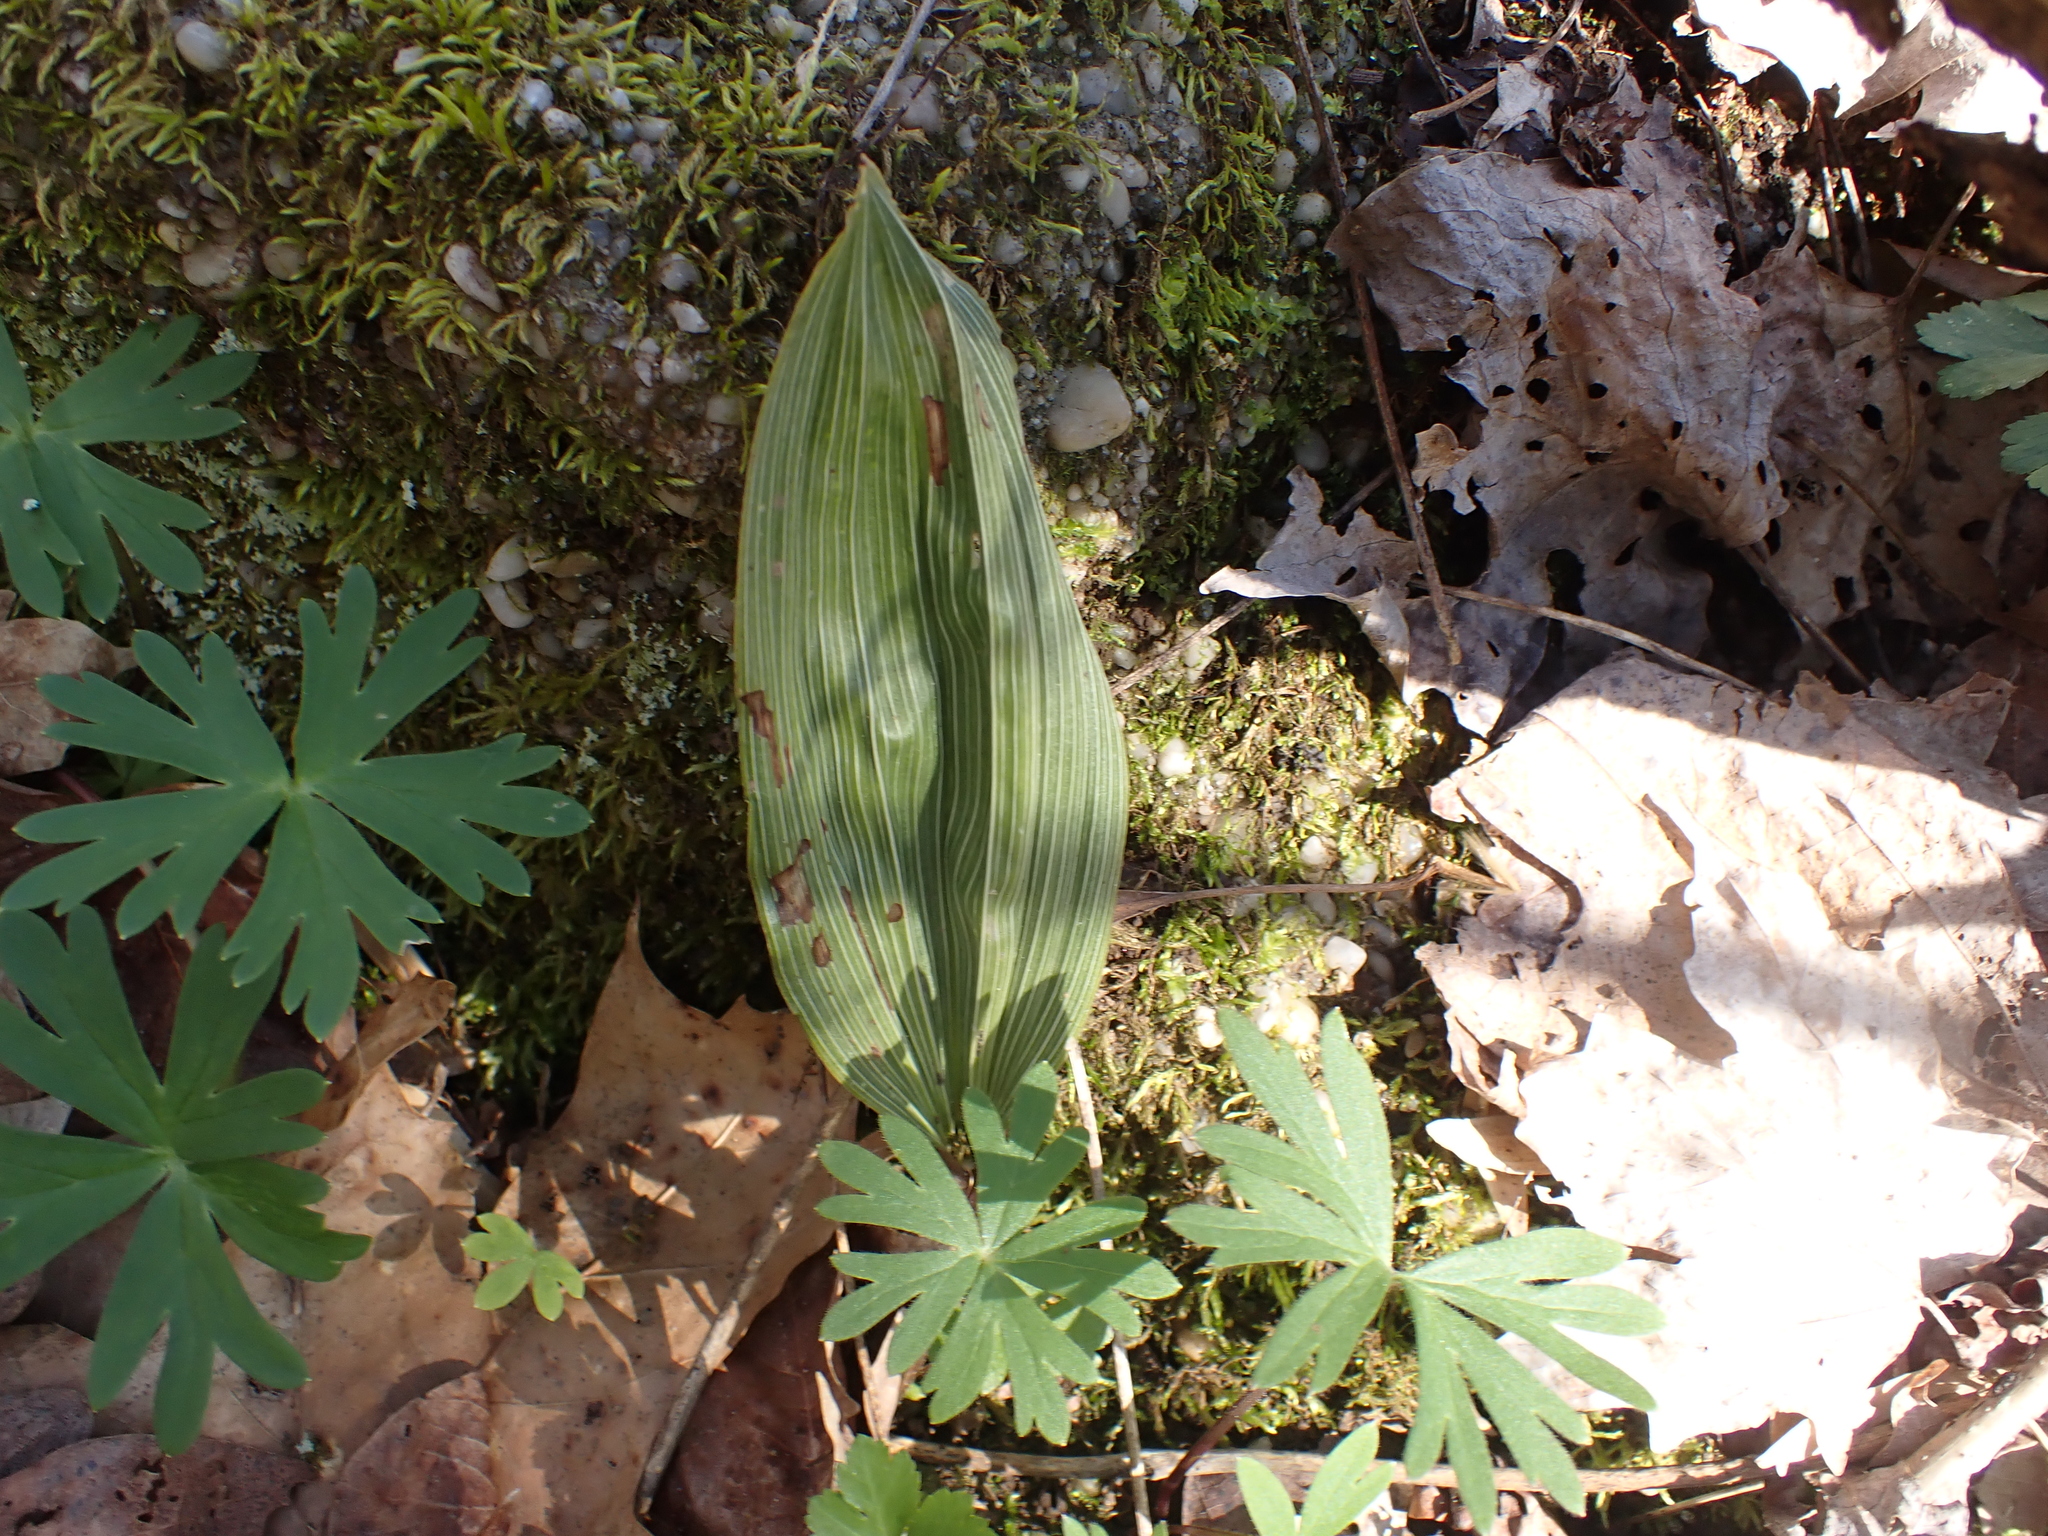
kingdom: Plantae
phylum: Tracheophyta
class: Liliopsida
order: Asparagales
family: Orchidaceae
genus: Aplectrum
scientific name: Aplectrum hyemale
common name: Adam-and-eve
